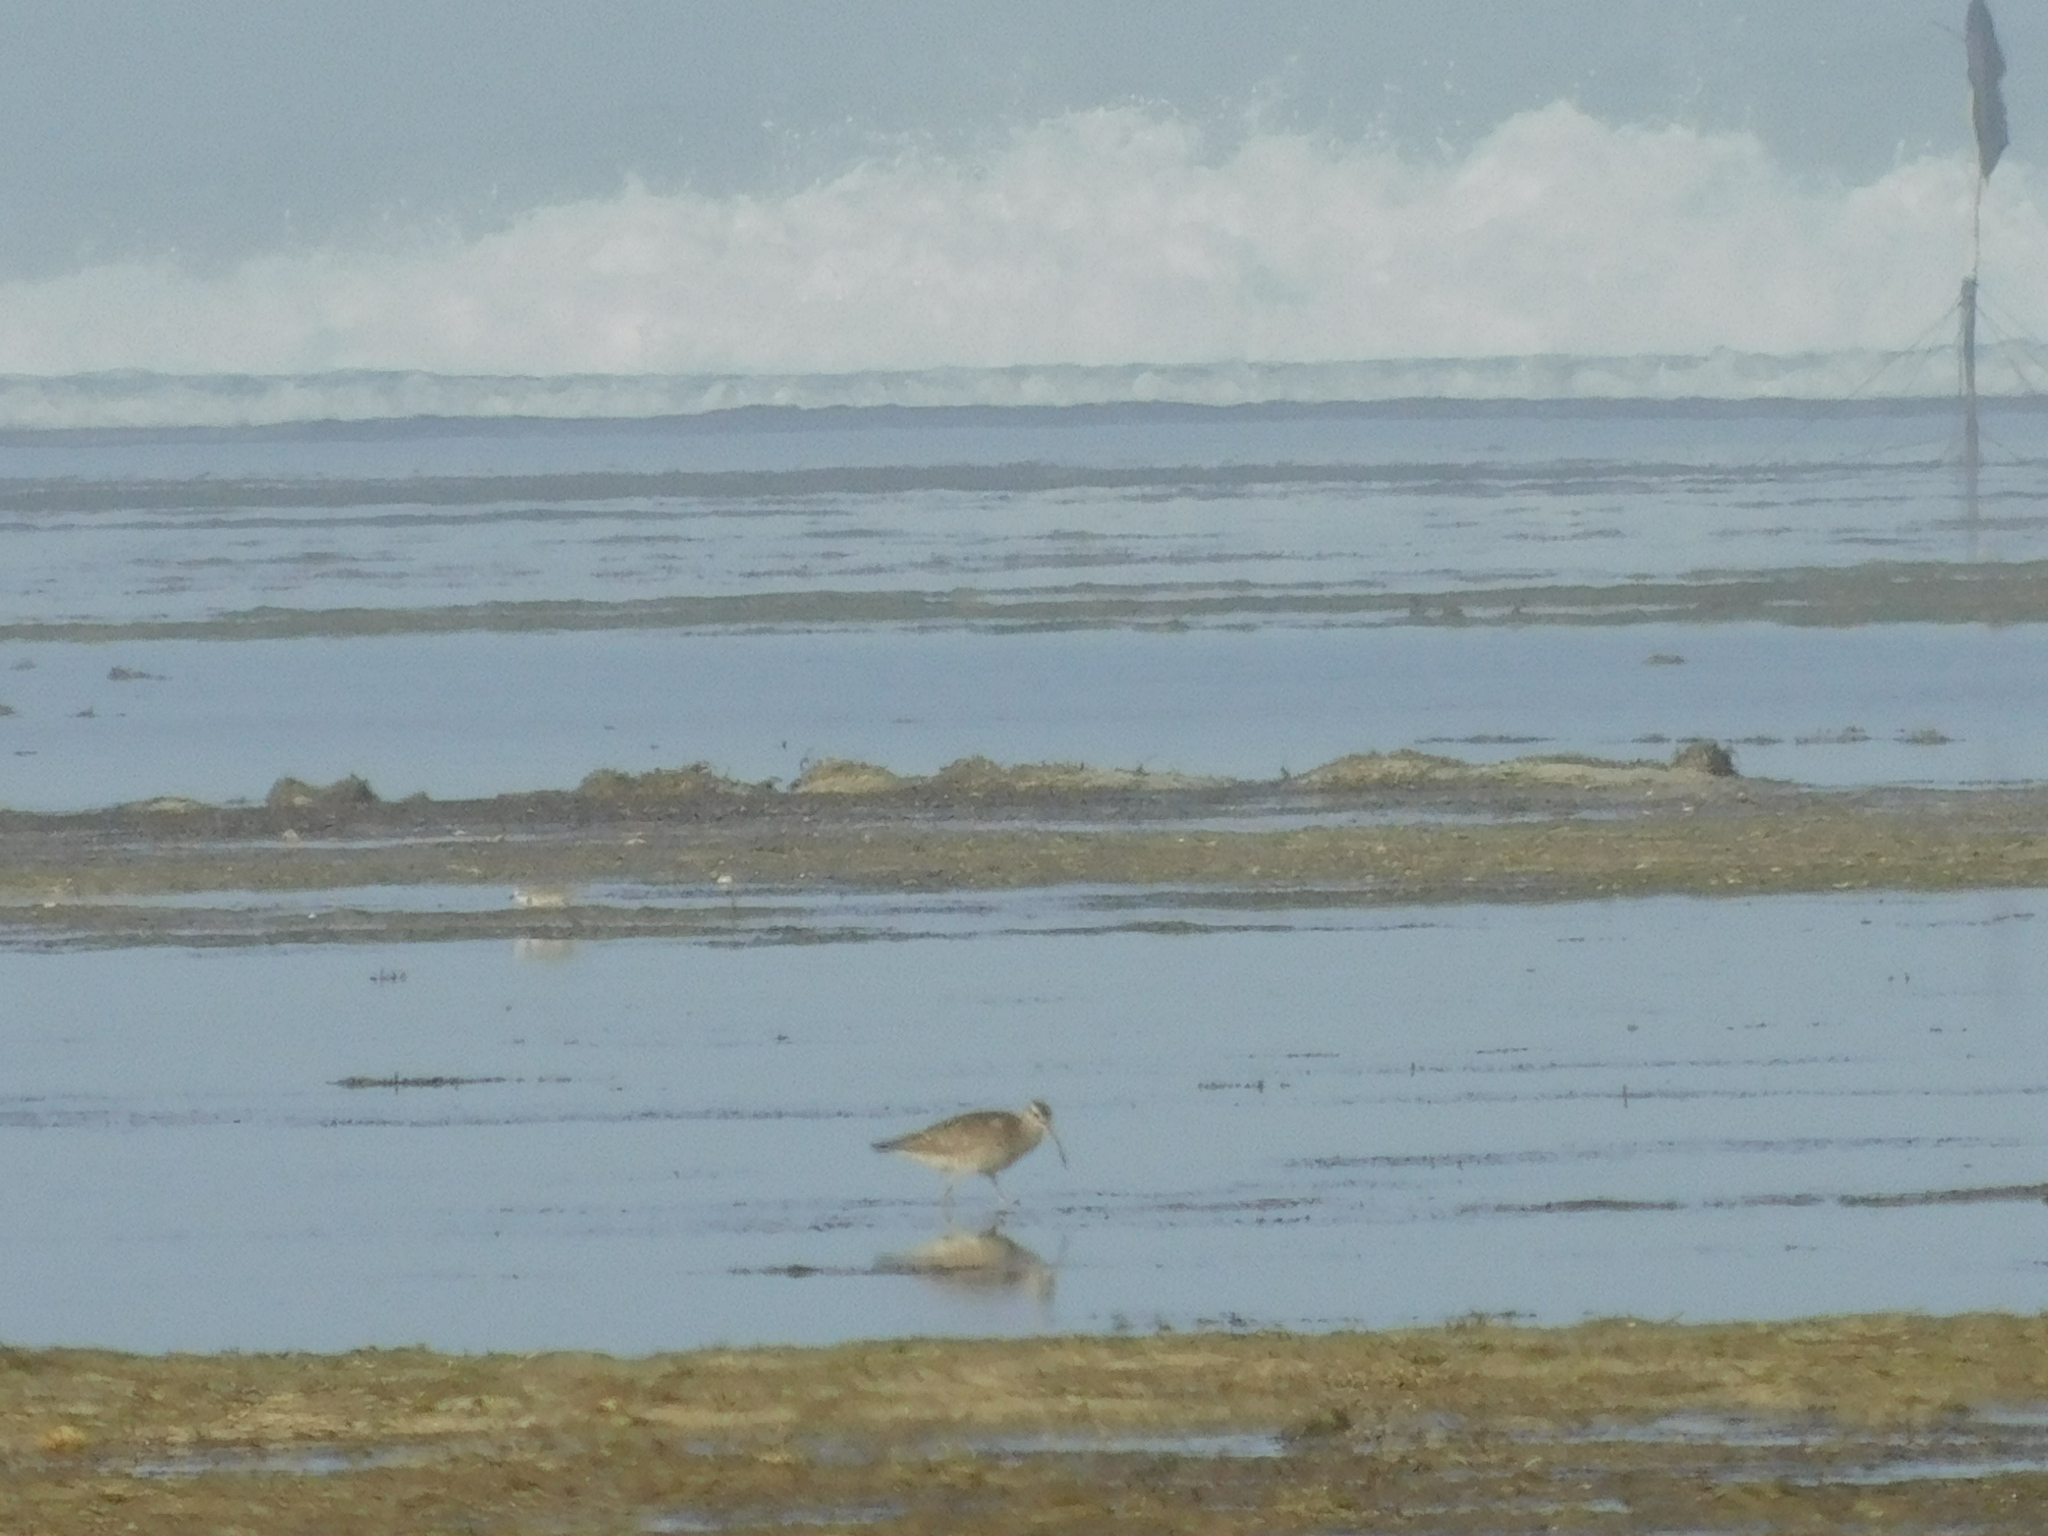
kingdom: Animalia
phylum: Chordata
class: Aves
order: Charadriiformes
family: Scolopacidae
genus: Numenius
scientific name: Numenius phaeopus
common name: Whimbrel
